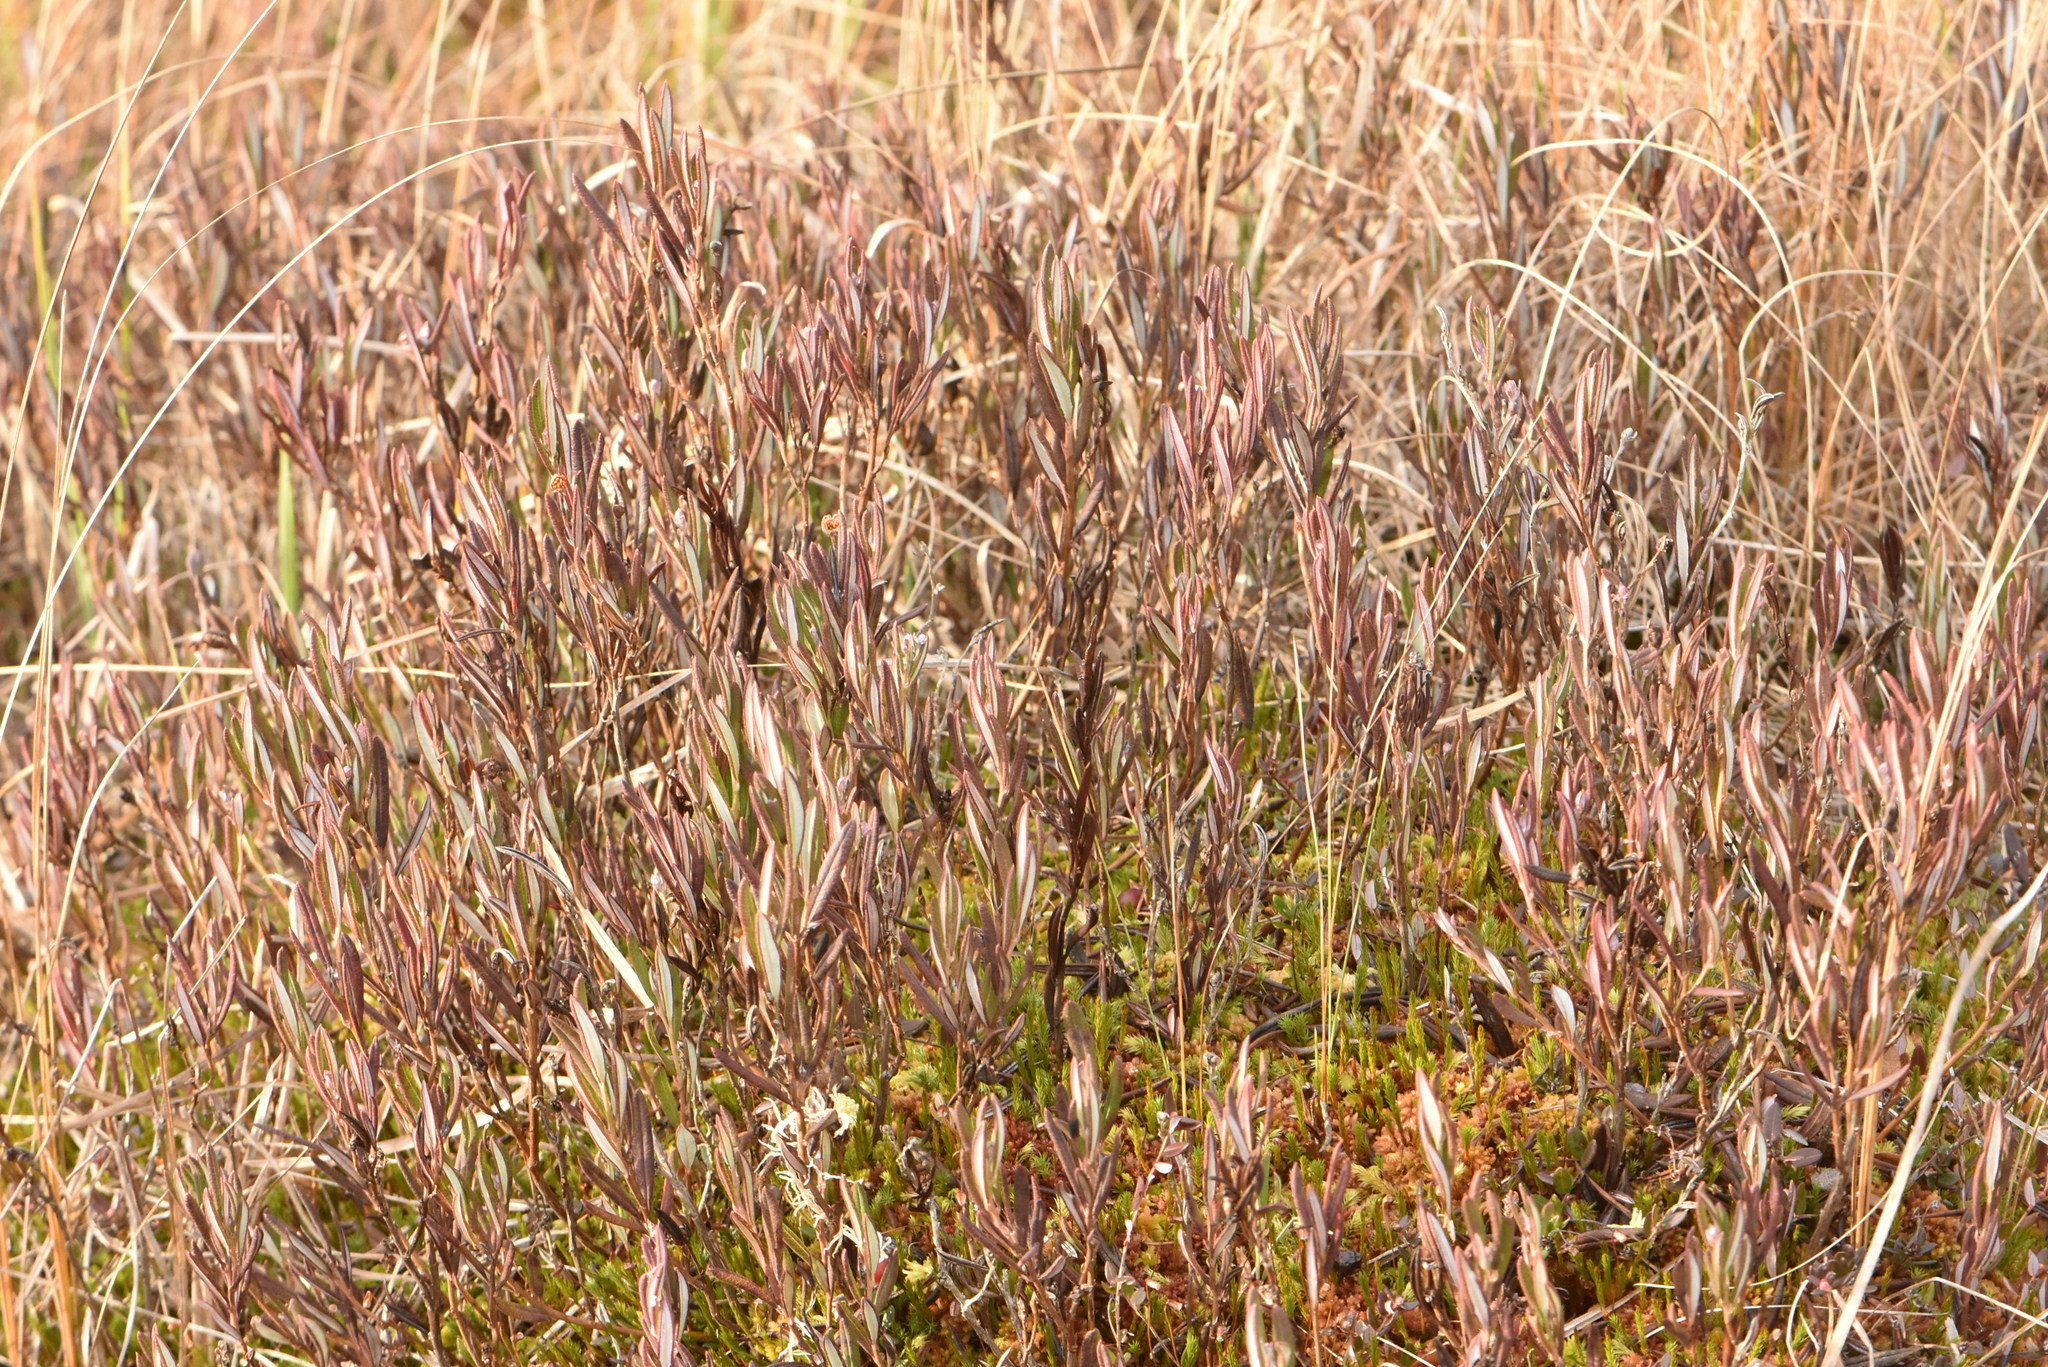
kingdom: Plantae
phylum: Tracheophyta
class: Magnoliopsida
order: Ericales
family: Ericaceae
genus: Andromeda
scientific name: Andromeda polifolia
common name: Bog-rosemary
